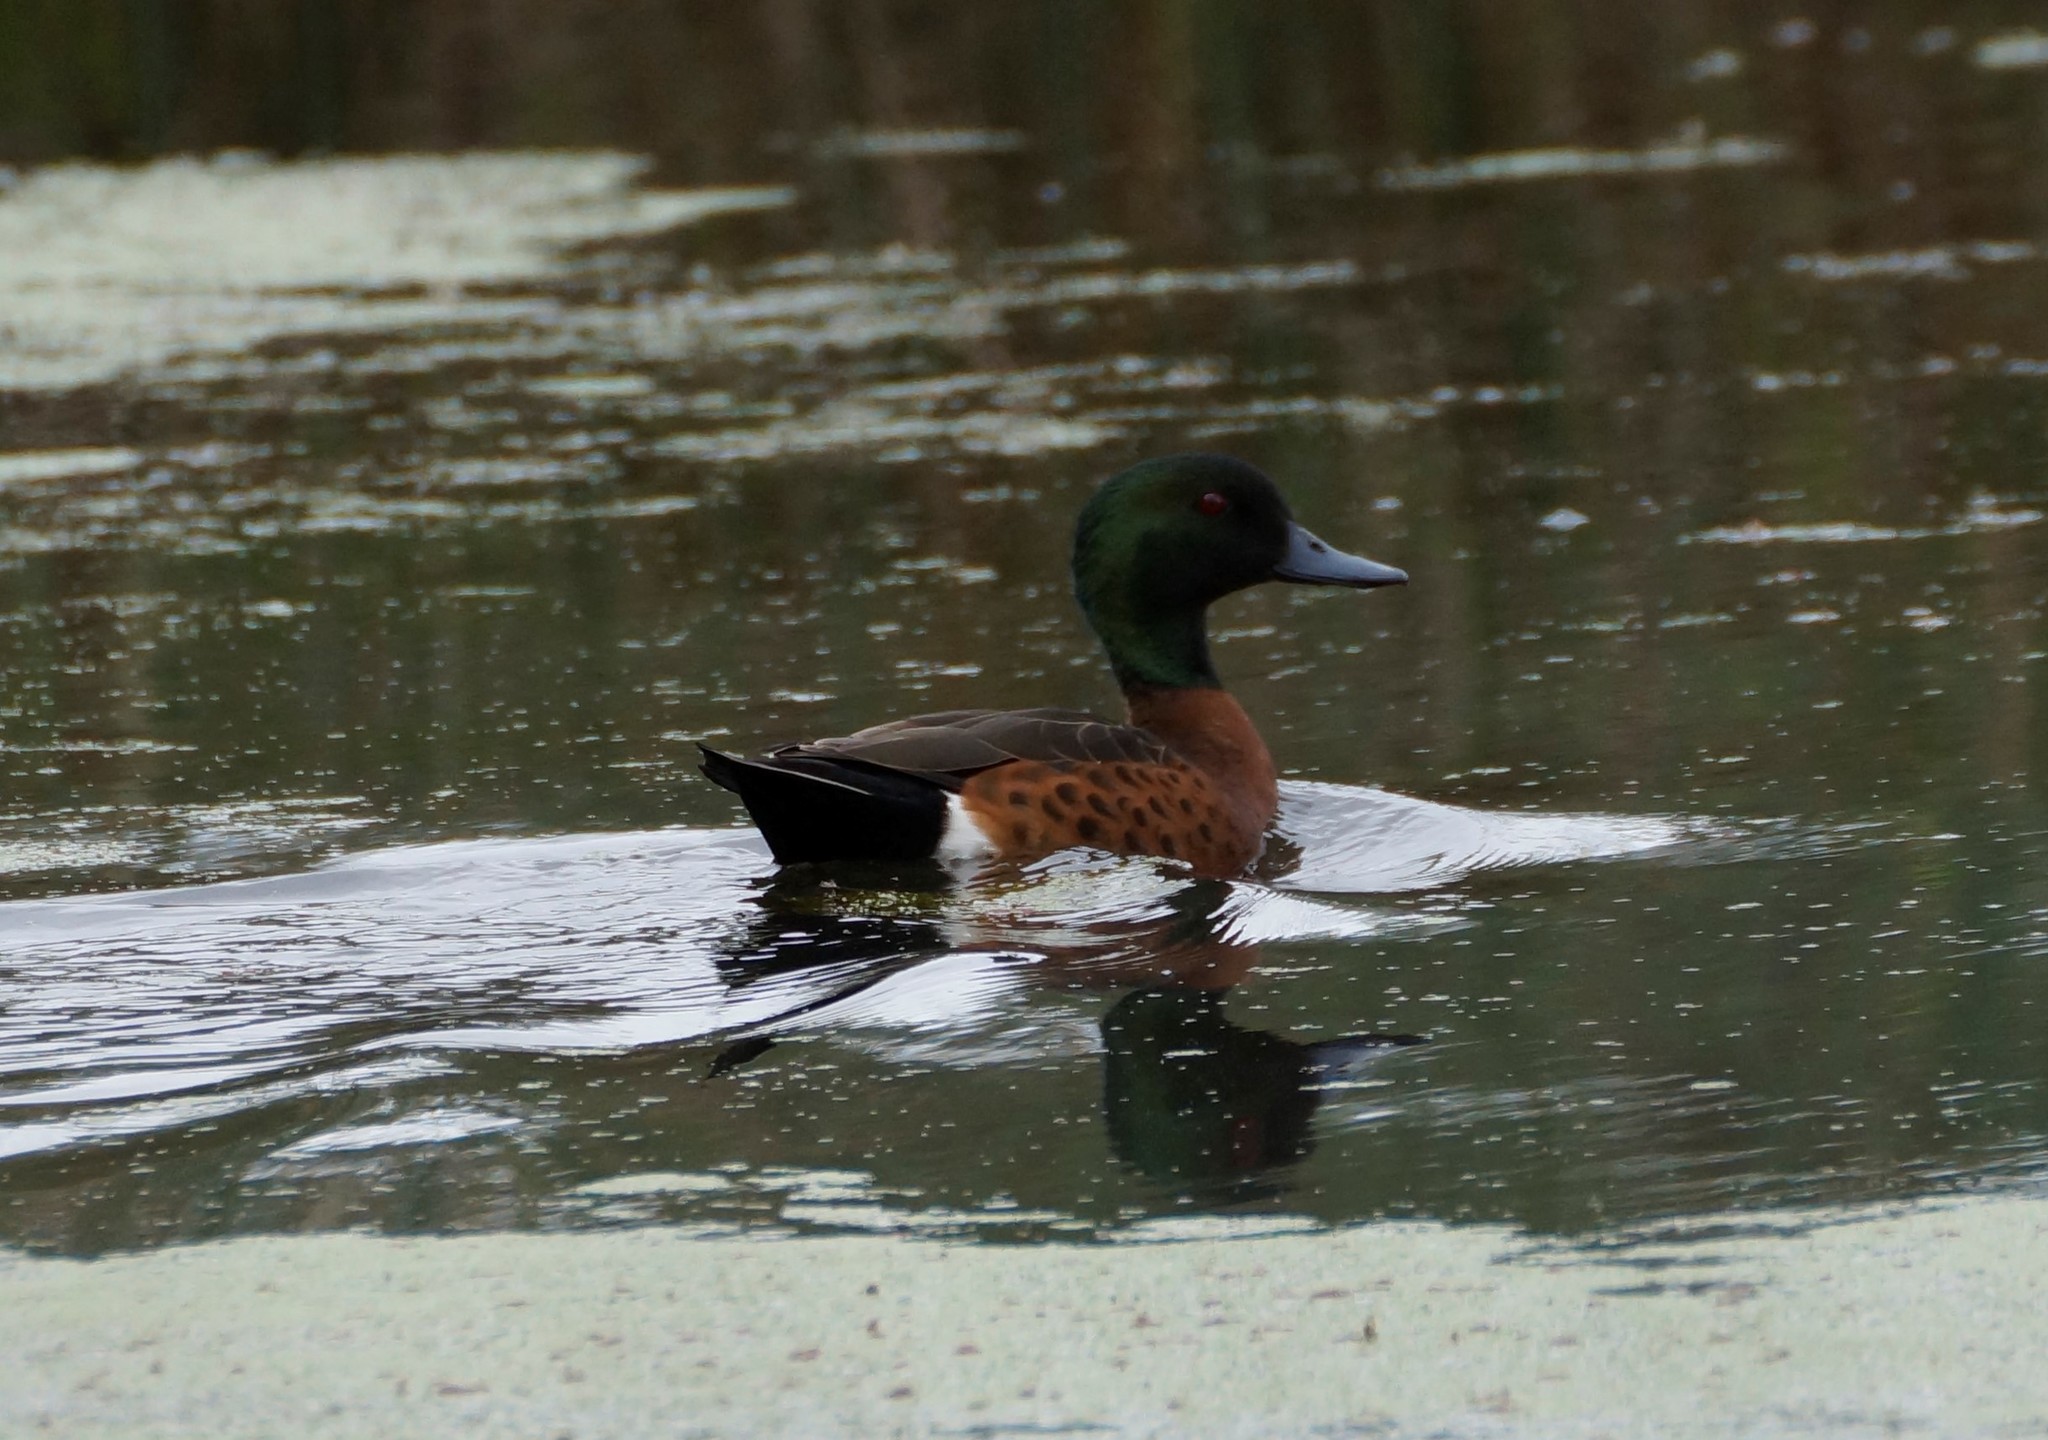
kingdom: Animalia
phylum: Chordata
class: Aves
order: Anseriformes
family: Anatidae
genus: Anas
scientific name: Anas castanea
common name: Chestnut teal
